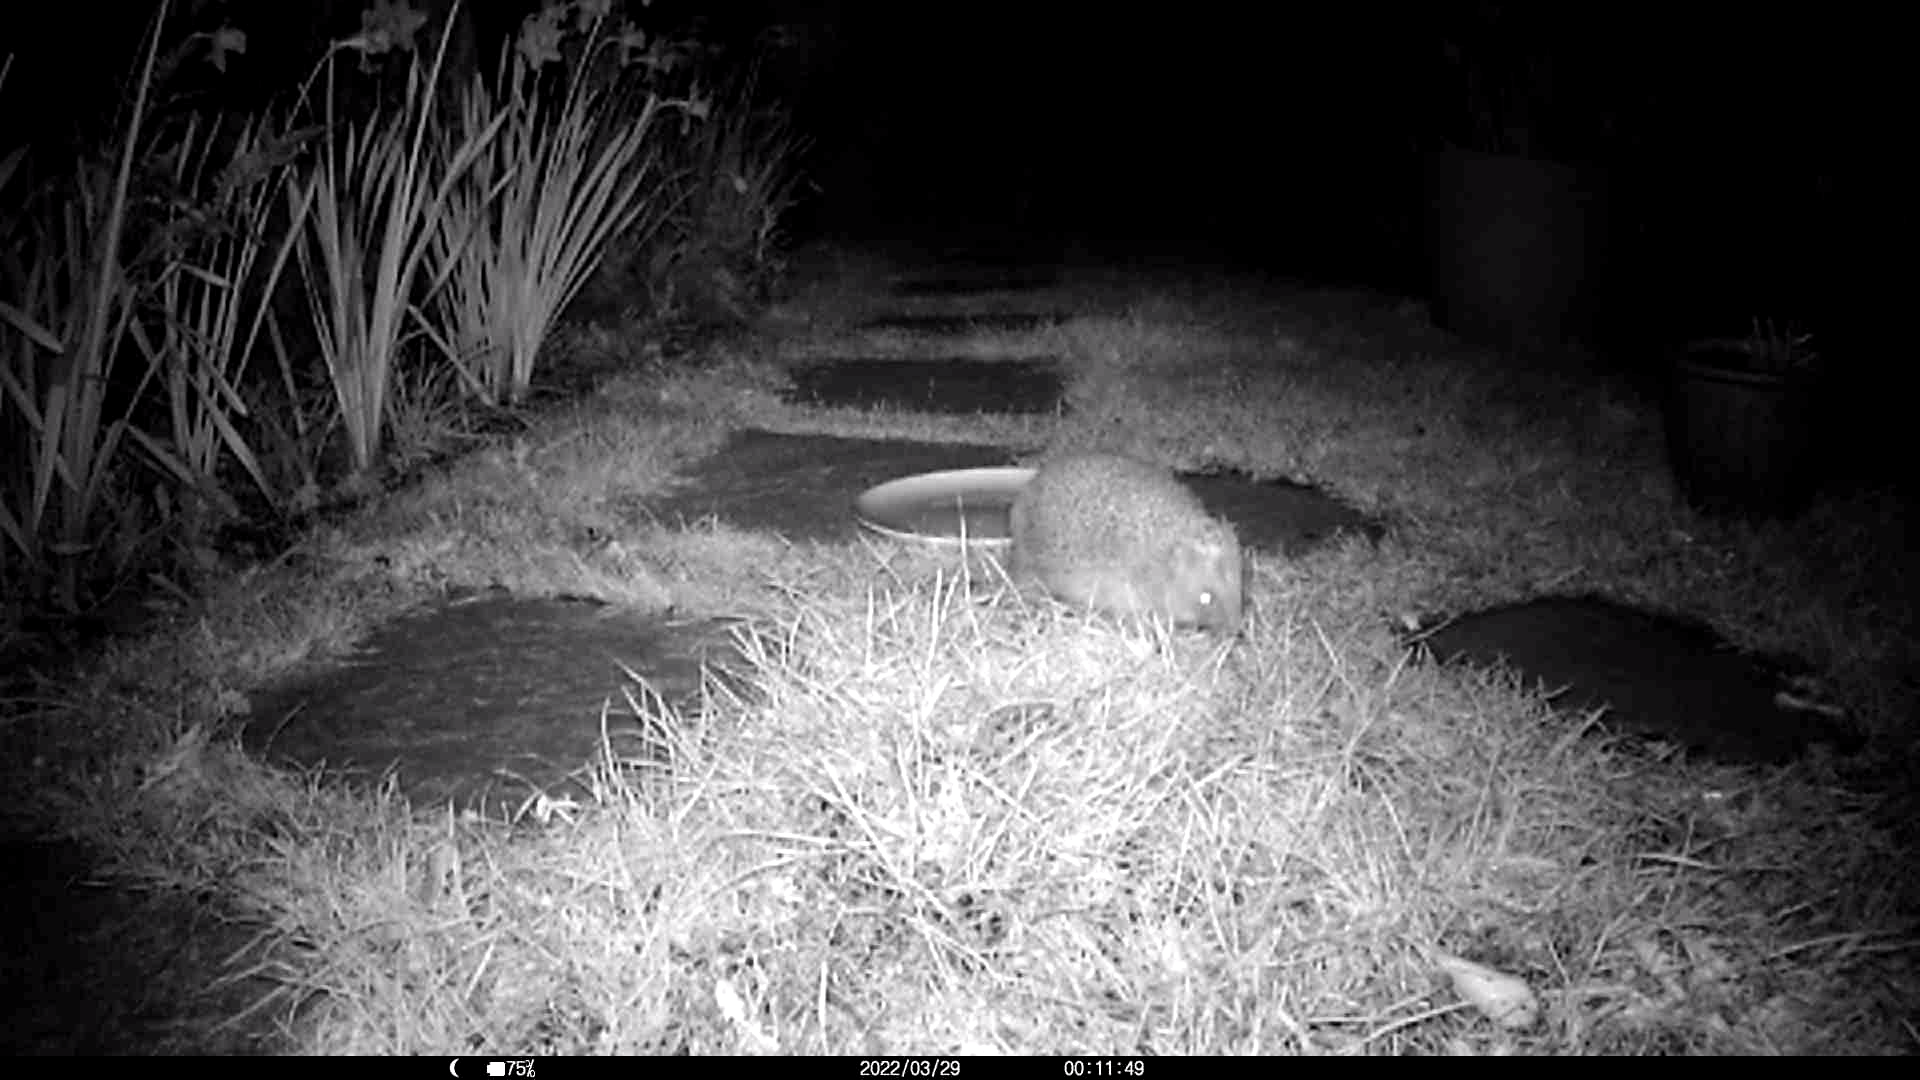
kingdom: Animalia
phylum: Chordata
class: Mammalia
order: Erinaceomorpha
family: Erinaceidae
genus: Erinaceus
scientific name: Erinaceus europaeus
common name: West european hedgehog
